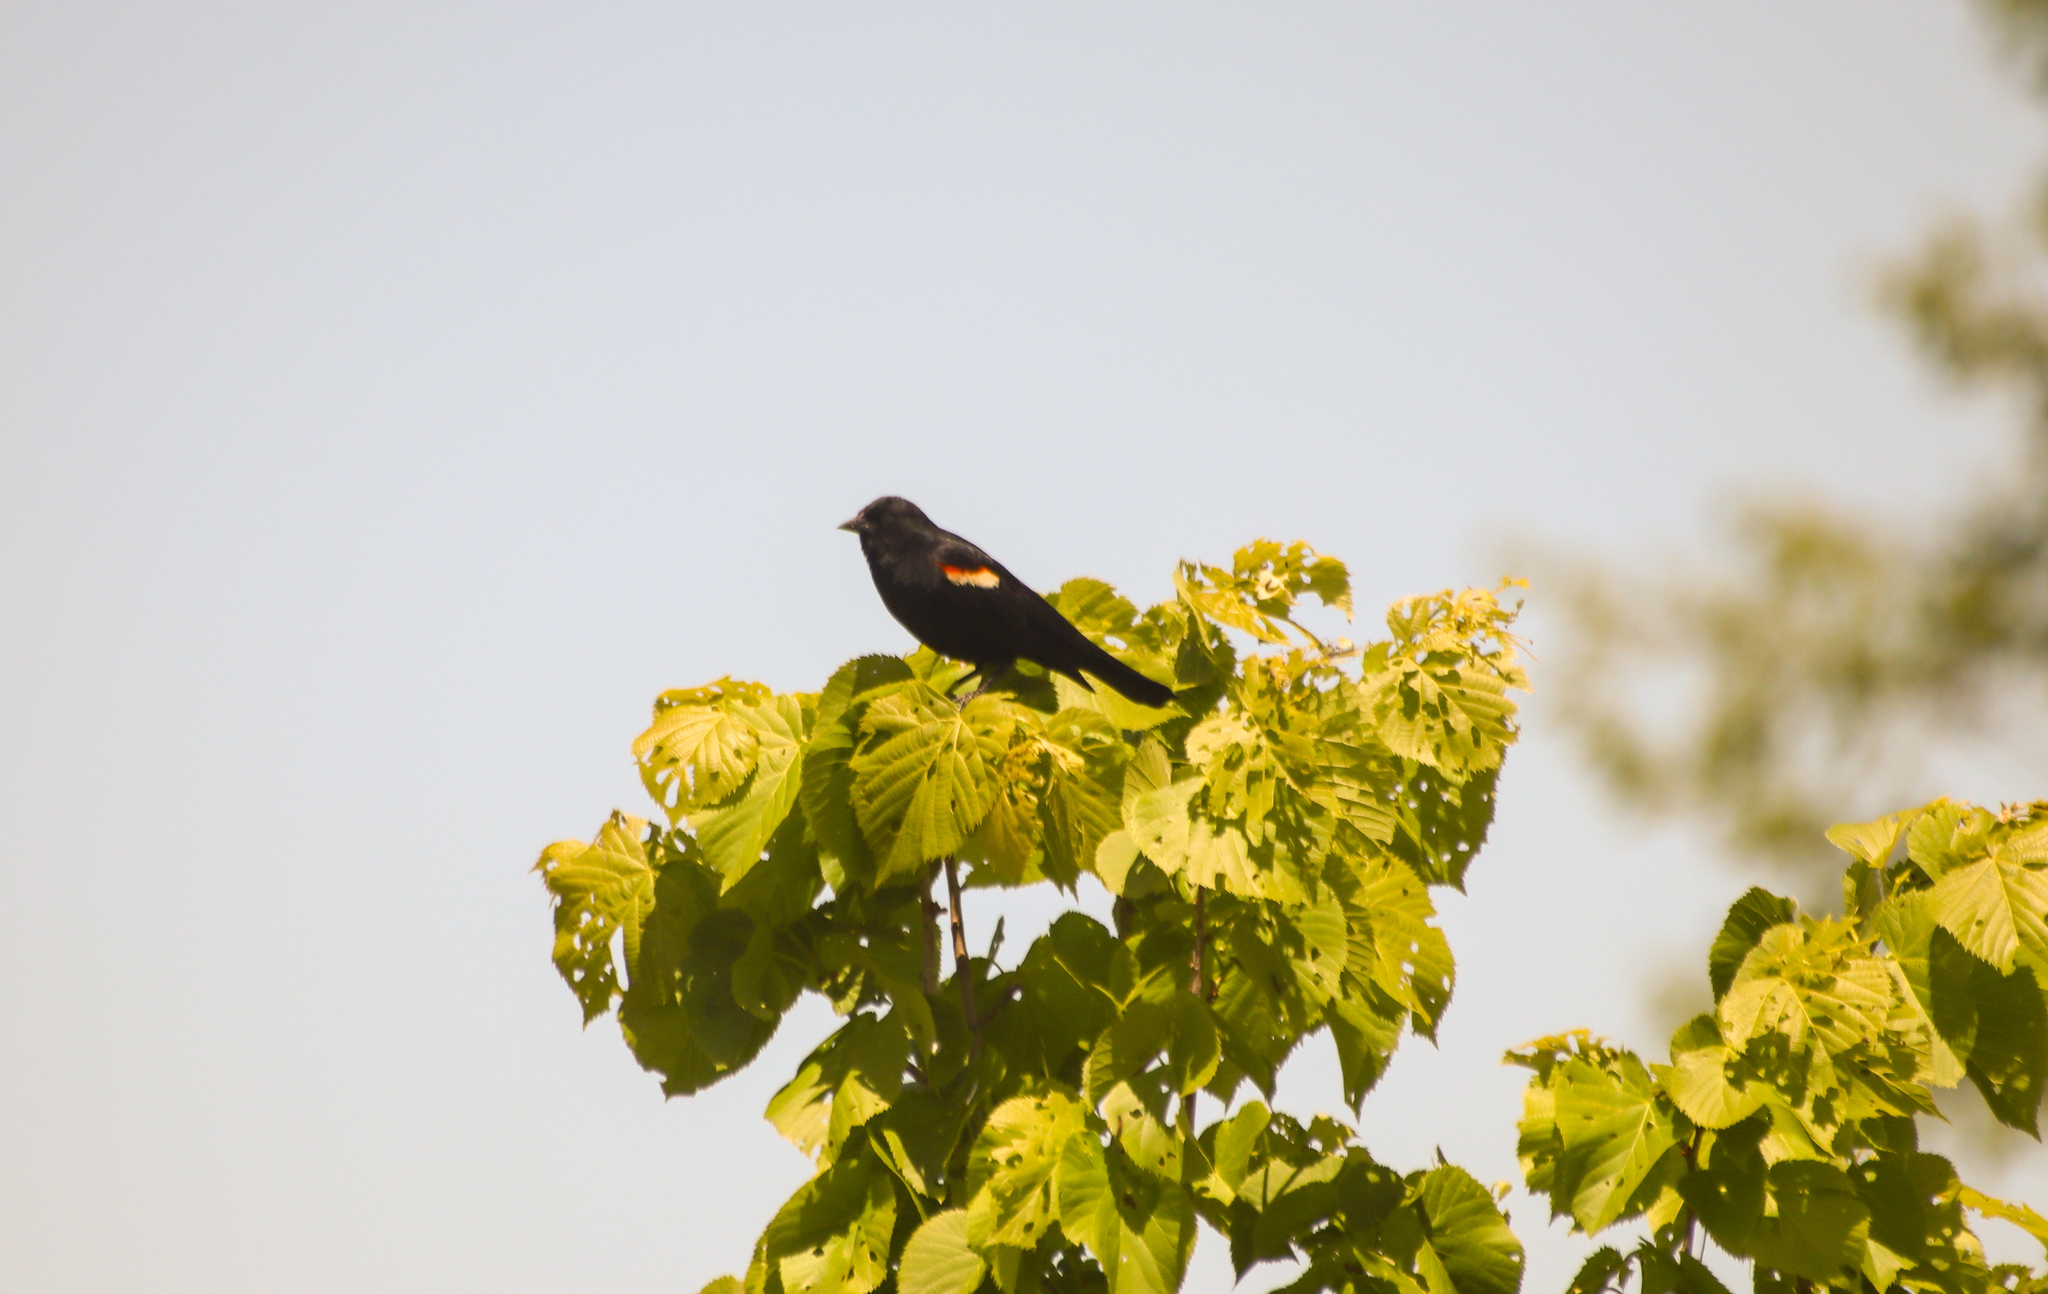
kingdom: Animalia
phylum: Chordata
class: Aves
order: Passeriformes
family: Icteridae
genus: Agelaius
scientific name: Agelaius phoeniceus
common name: Red-winged blackbird
